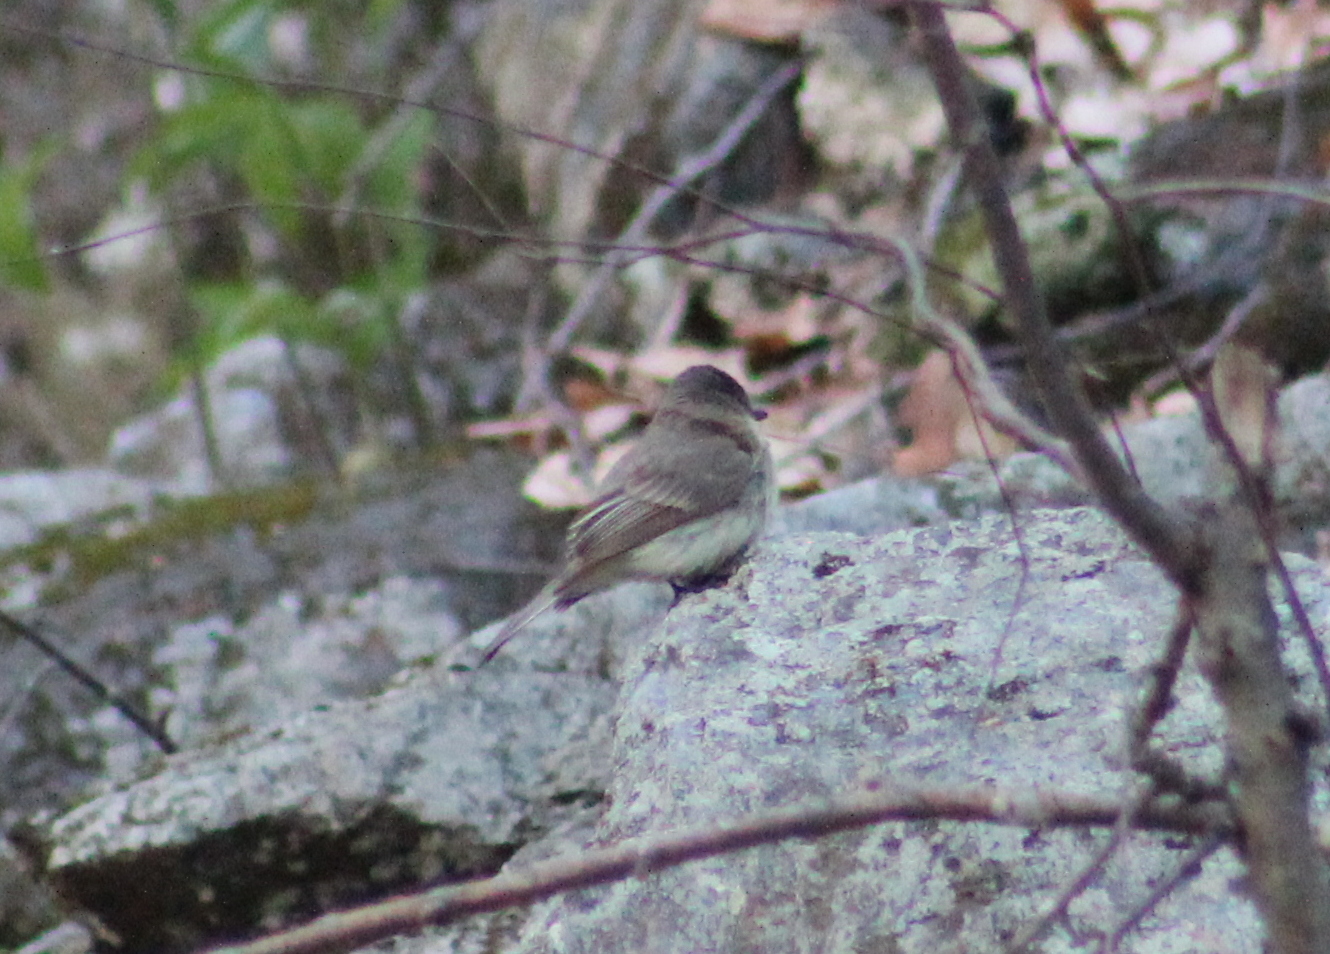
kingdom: Animalia
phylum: Chordata
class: Aves
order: Passeriformes
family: Tyrannidae
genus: Sayornis
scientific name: Sayornis phoebe
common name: Eastern phoebe
